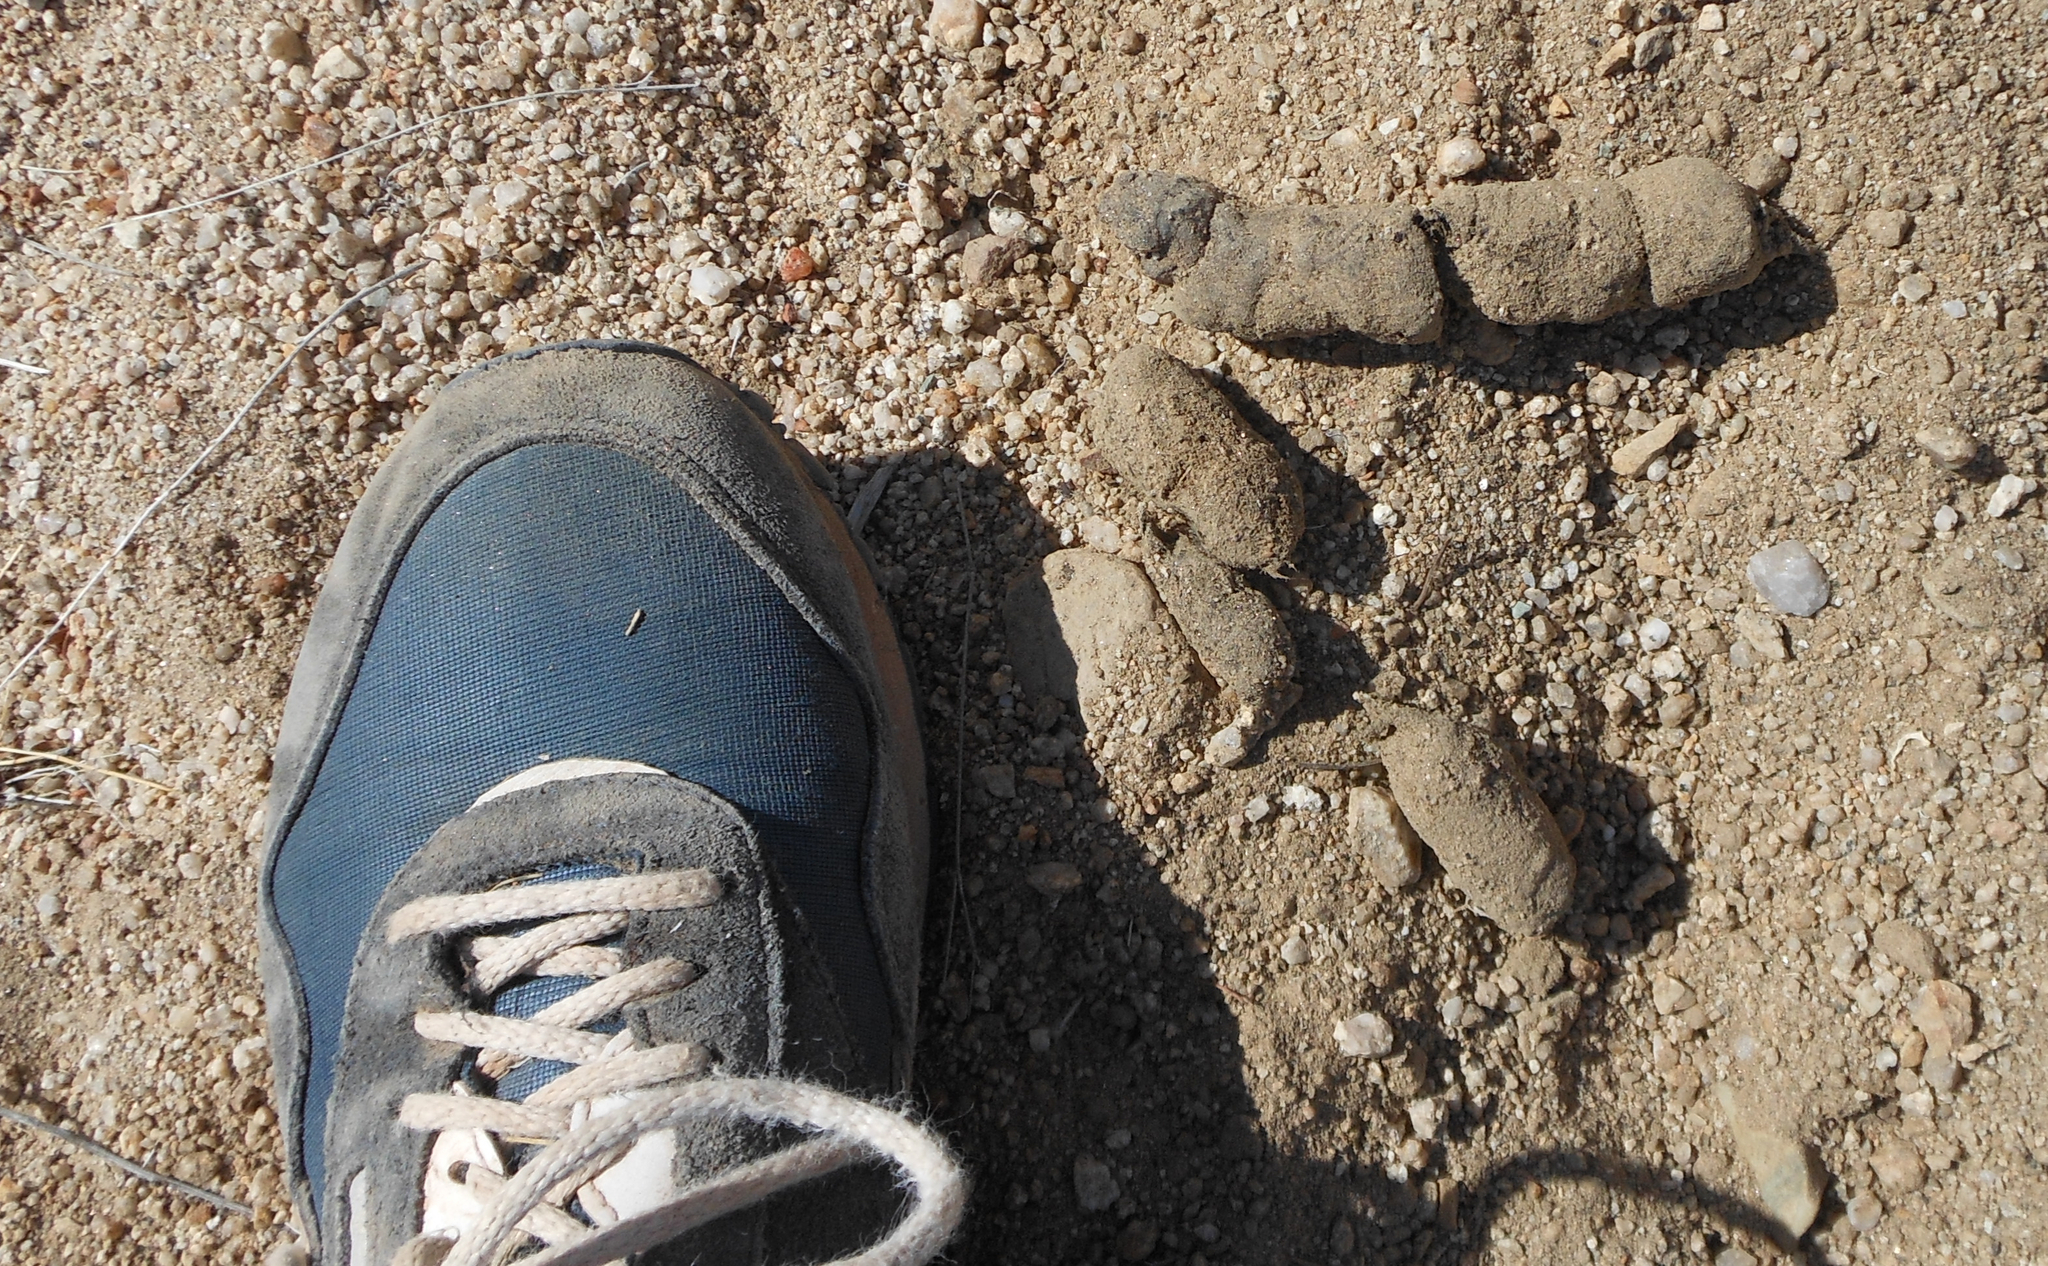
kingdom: Animalia
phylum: Chordata
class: Mammalia
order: Carnivora
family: Felidae
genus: Puma
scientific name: Puma concolor
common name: Puma
